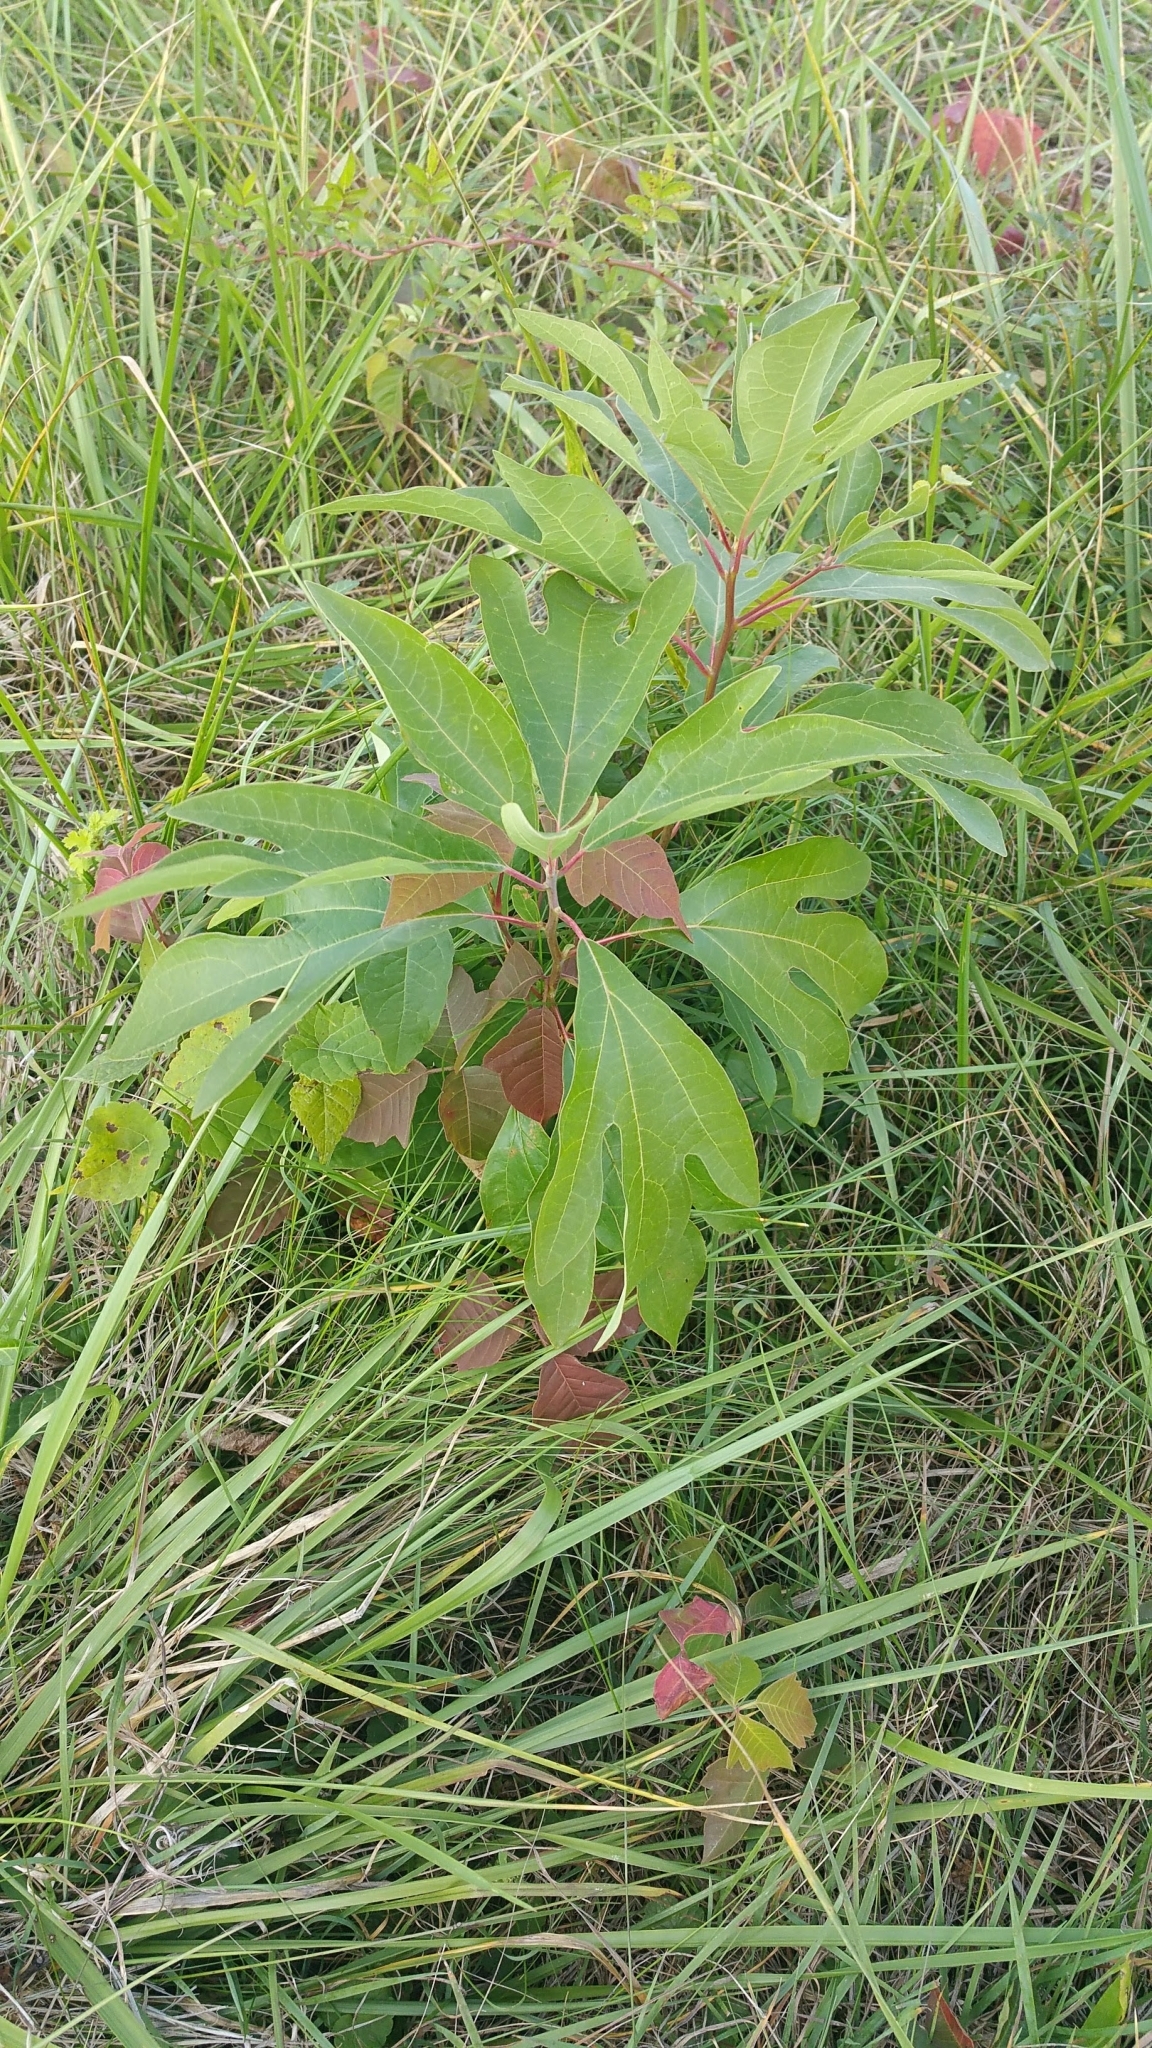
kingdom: Plantae
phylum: Tracheophyta
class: Magnoliopsida
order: Laurales
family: Lauraceae
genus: Sassafras
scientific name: Sassafras albidum
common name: Sassafras
